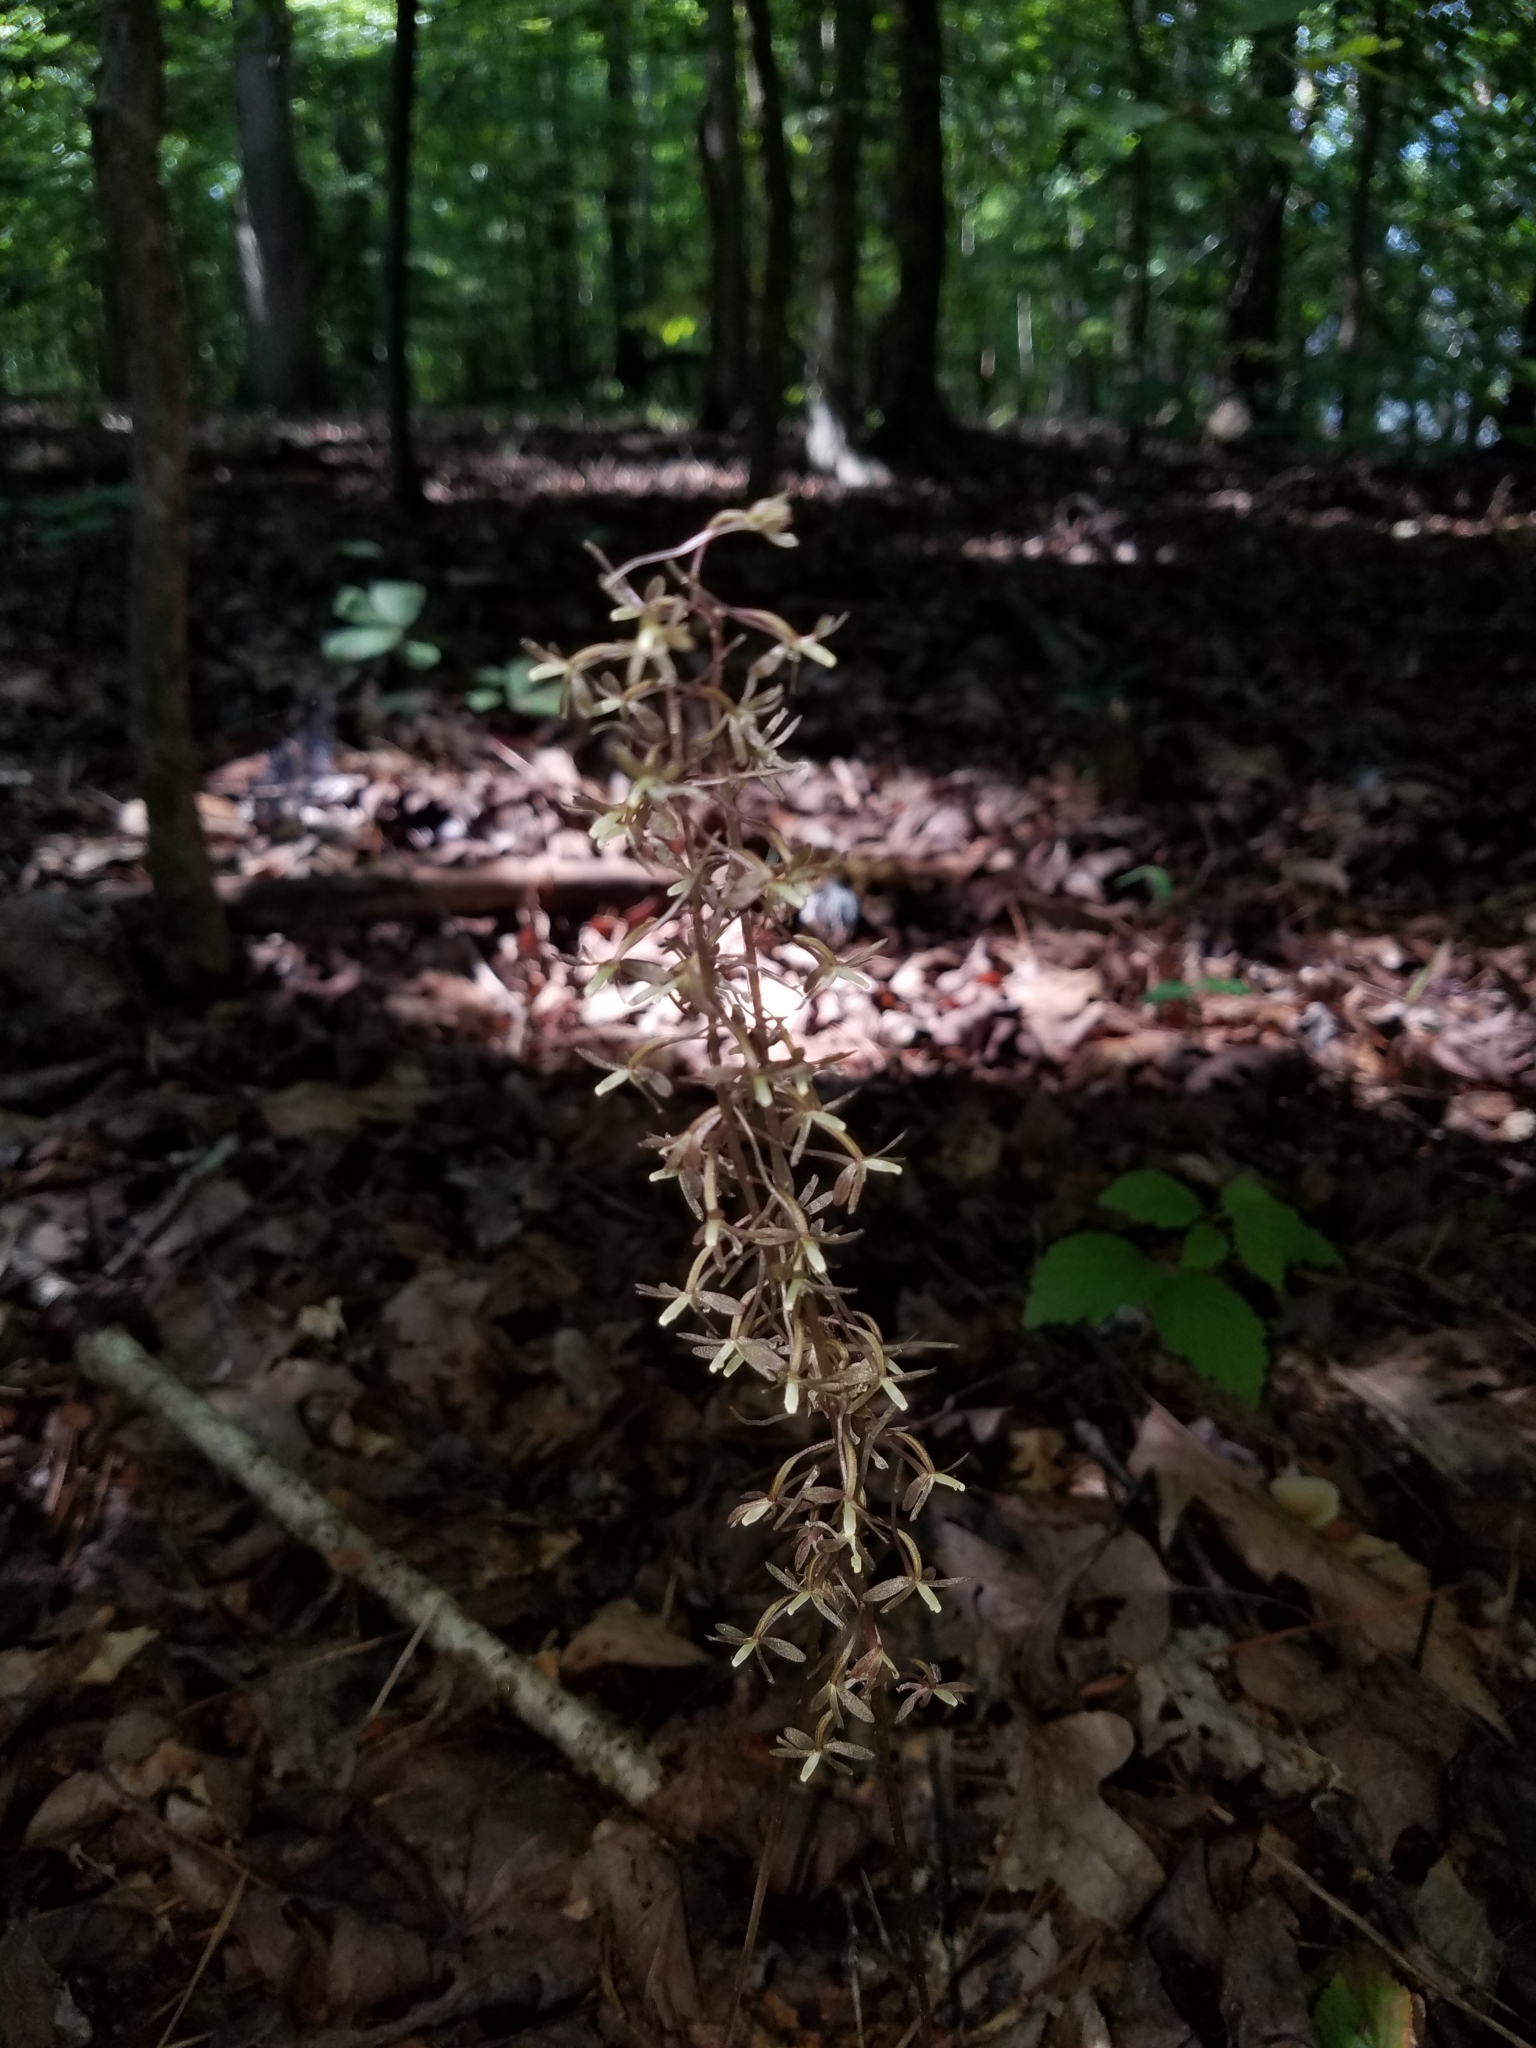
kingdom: Plantae
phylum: Tracheophyta
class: Liliopsida
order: Asparagales
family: Orchidaceae
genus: Tipularia
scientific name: Tipularia discolor
